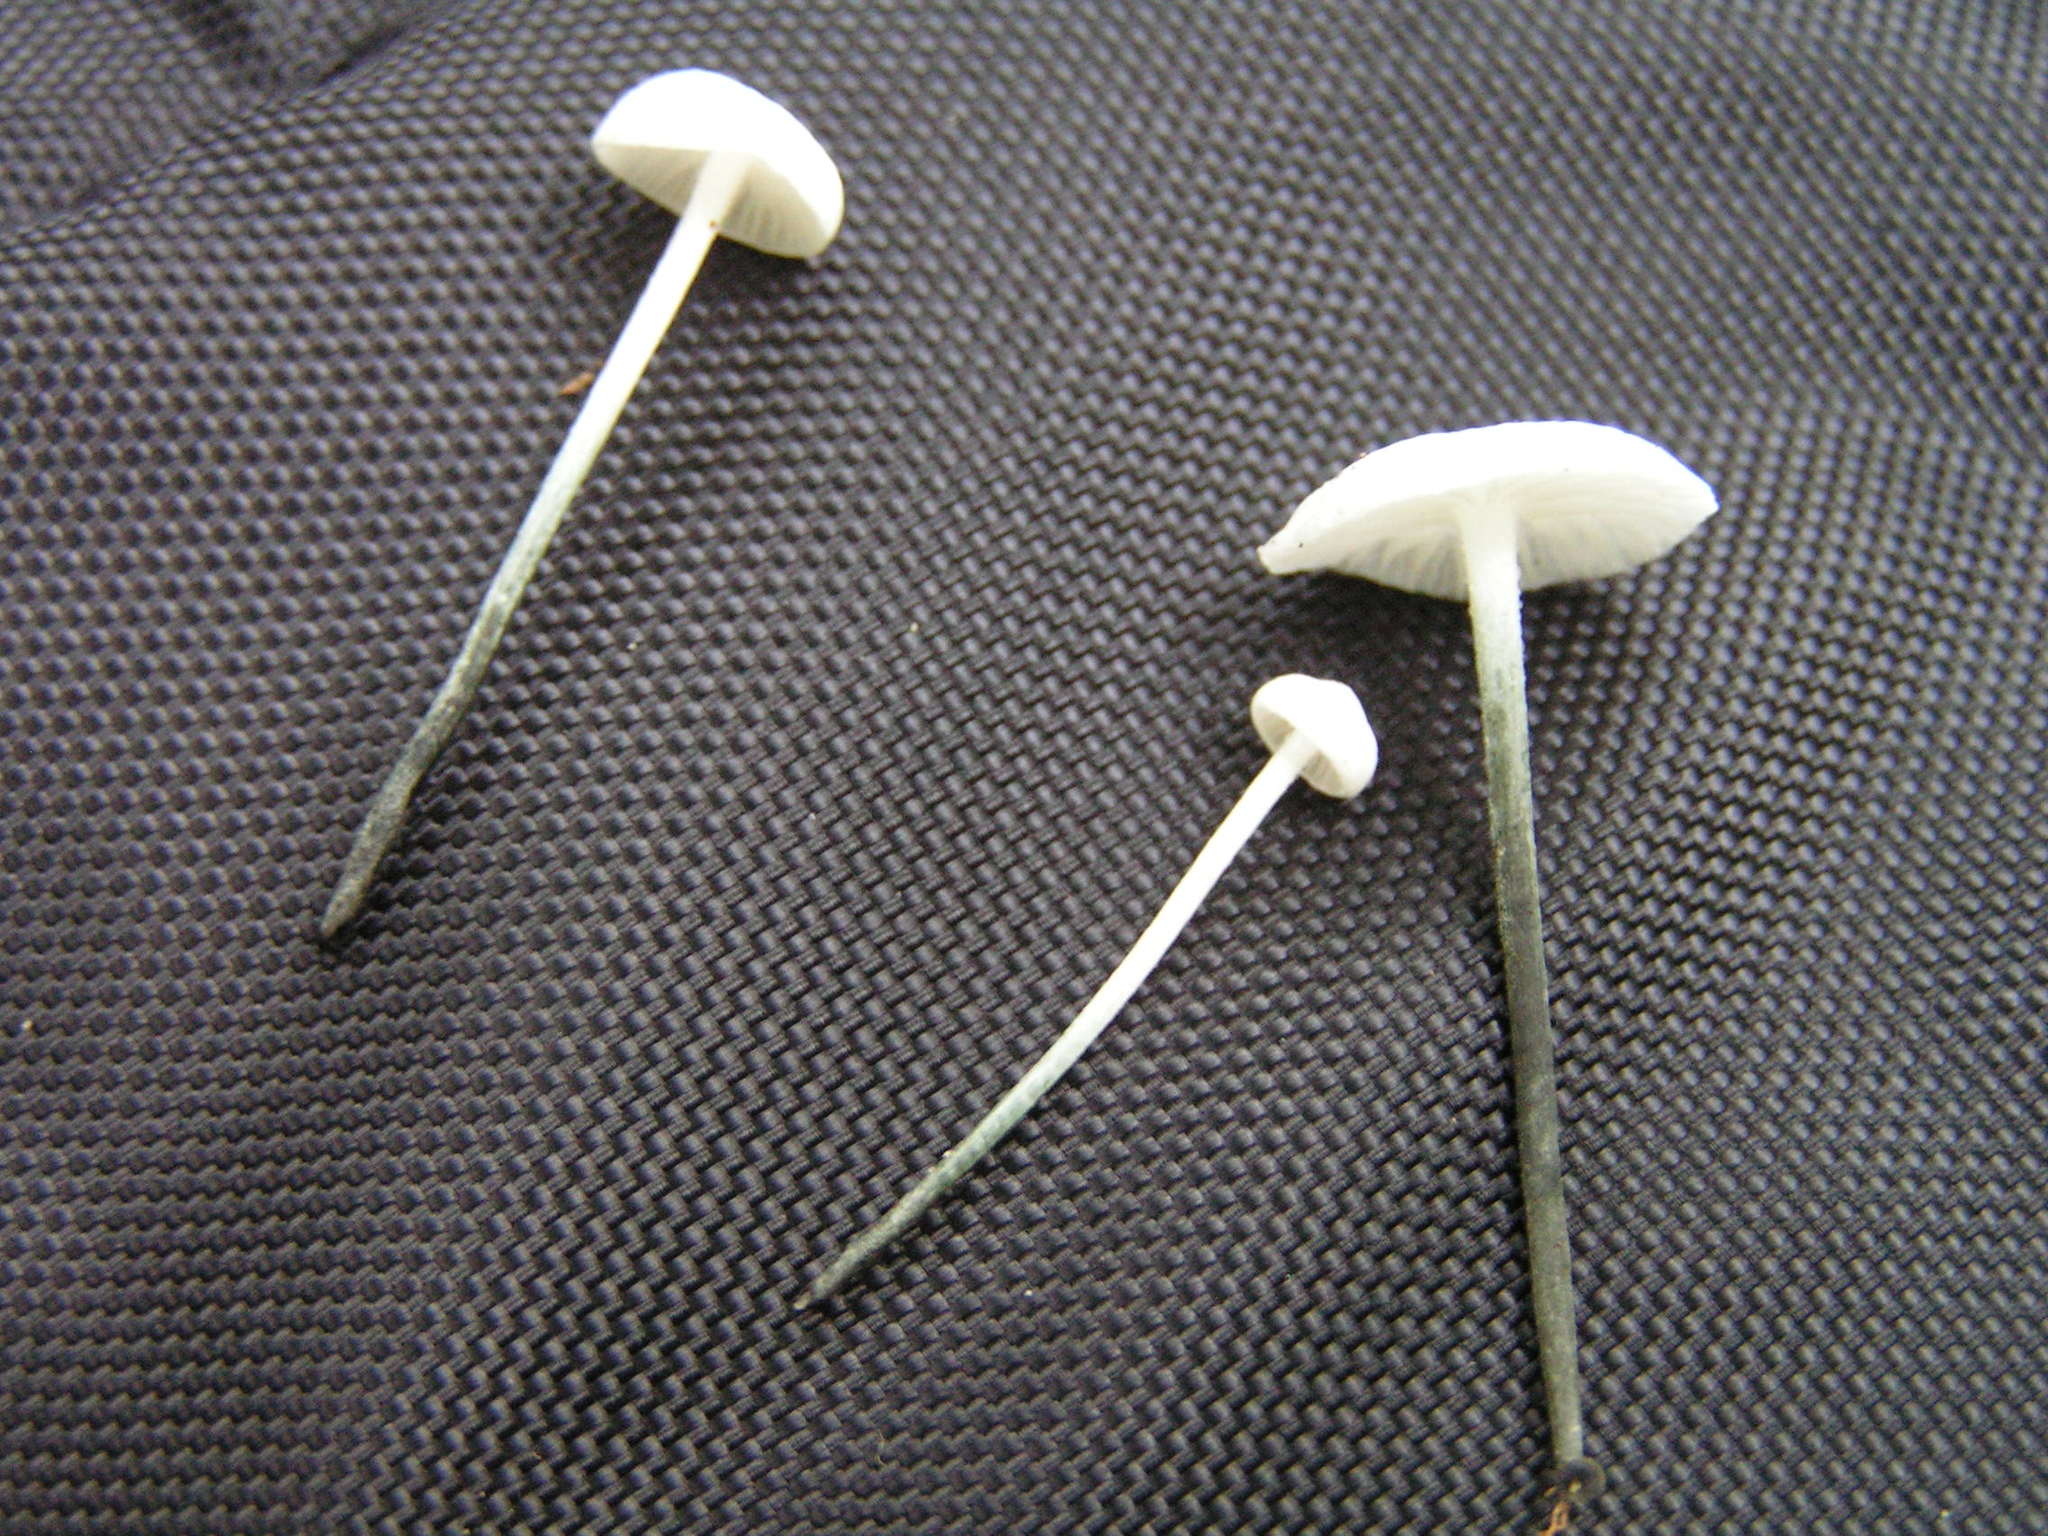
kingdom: Fungi
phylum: Basidiomycota
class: Agaricomycetes
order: Agaricales
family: Marasmiaceae
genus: Tetrapyrgos
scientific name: Tetrapyrgos nigripes
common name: Black-stalked marasmius
